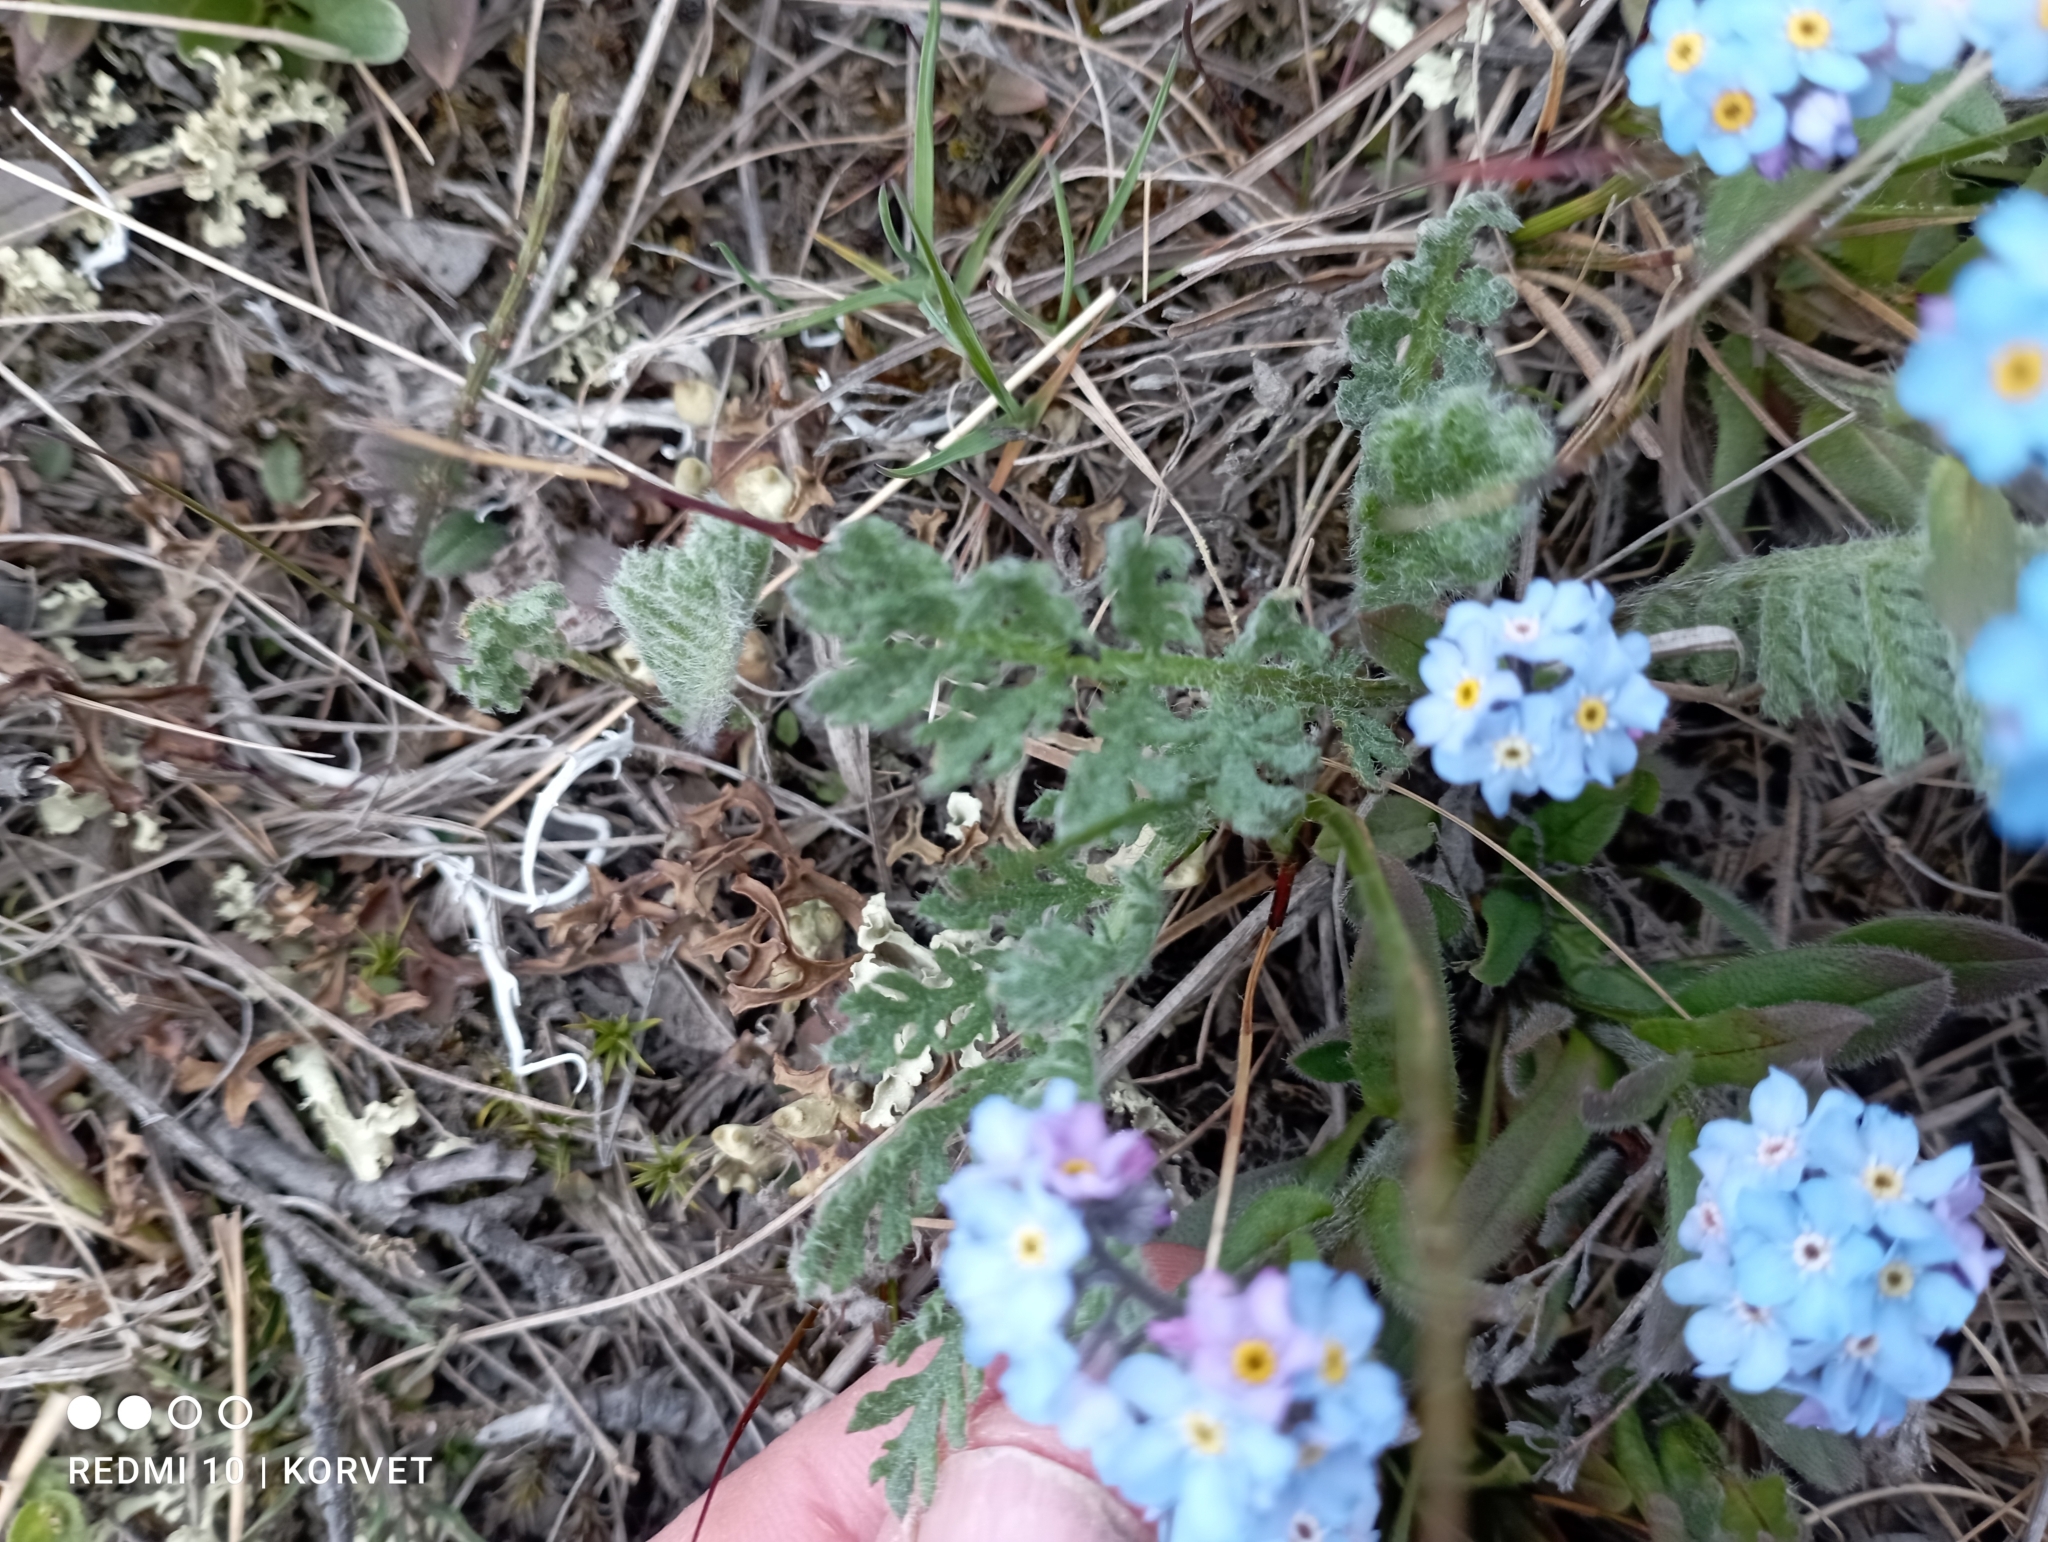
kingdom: Plantae
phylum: Tracheophyta
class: Magnoliopsida
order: Boraginales
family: Boraginaceae
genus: Myosotis
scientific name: Myosotis asiatica
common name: Asian forget-me-not
